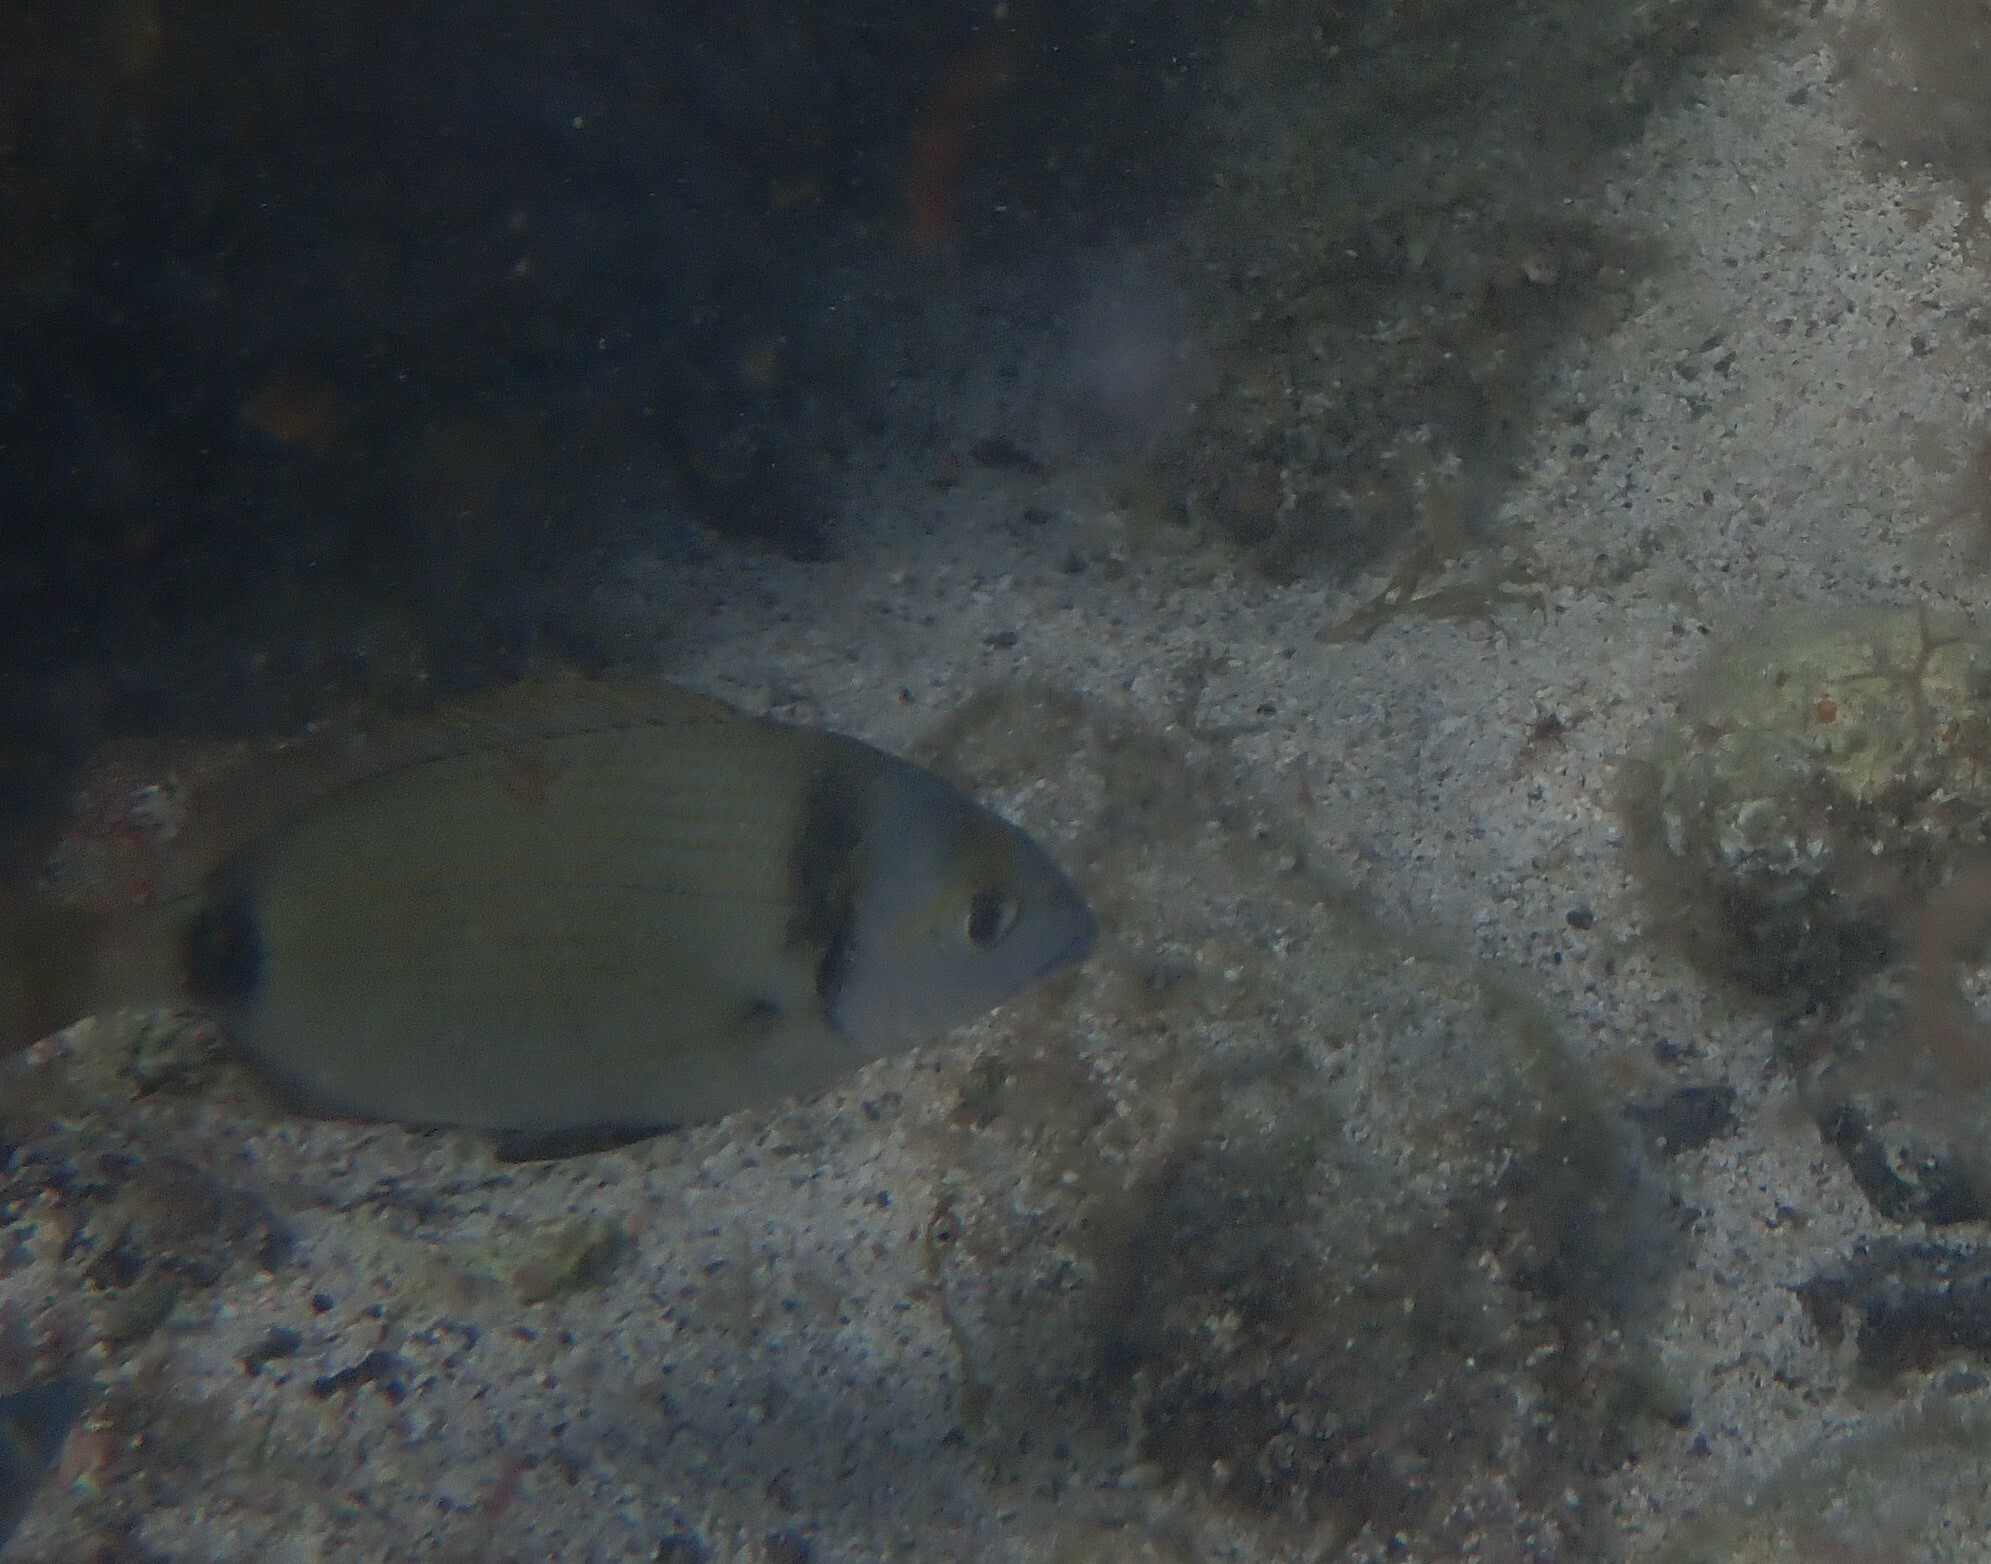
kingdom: Animalia
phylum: Chordata
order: Perciformes
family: Sparidae
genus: Diplodus
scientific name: Diplodus vulgaris
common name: Common two-banded seabream
